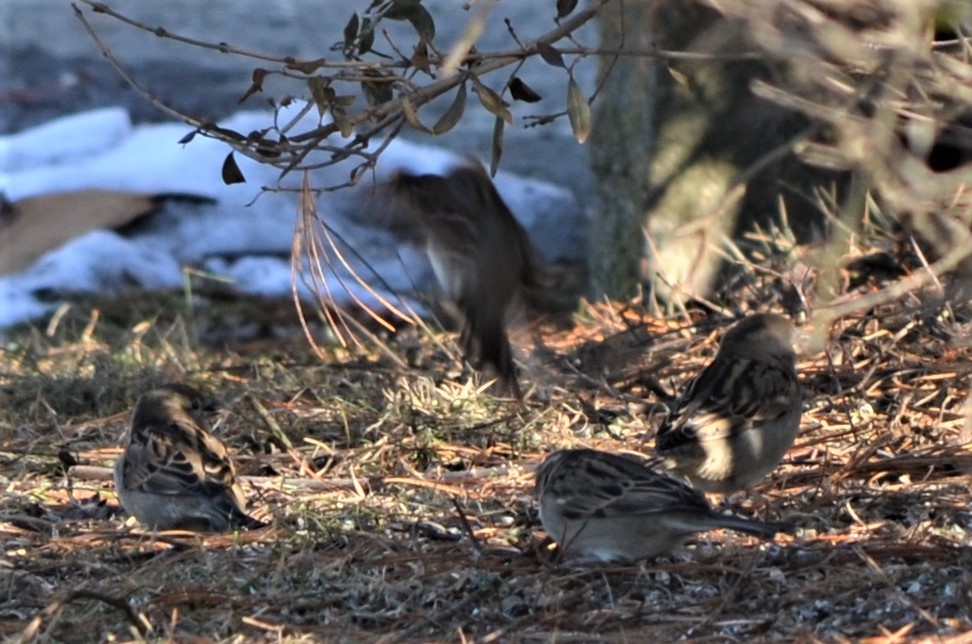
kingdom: Animalia
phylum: Chordata
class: Aves
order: Passeriformes
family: Passeridae
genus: Passer
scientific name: Passer domesticus
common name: House sparrow
